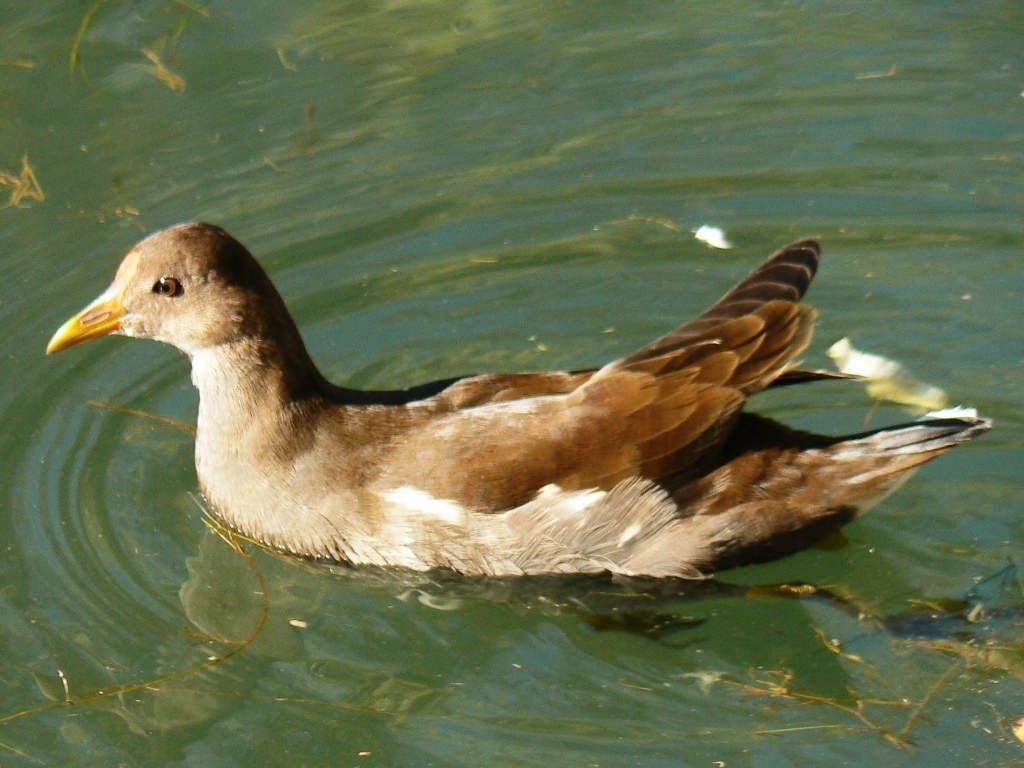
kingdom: Animalia
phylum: Chordata
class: Aves
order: Gruiformes
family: Rallidae
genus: Gallinula
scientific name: Gallinula chloropus
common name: Common moorhen
